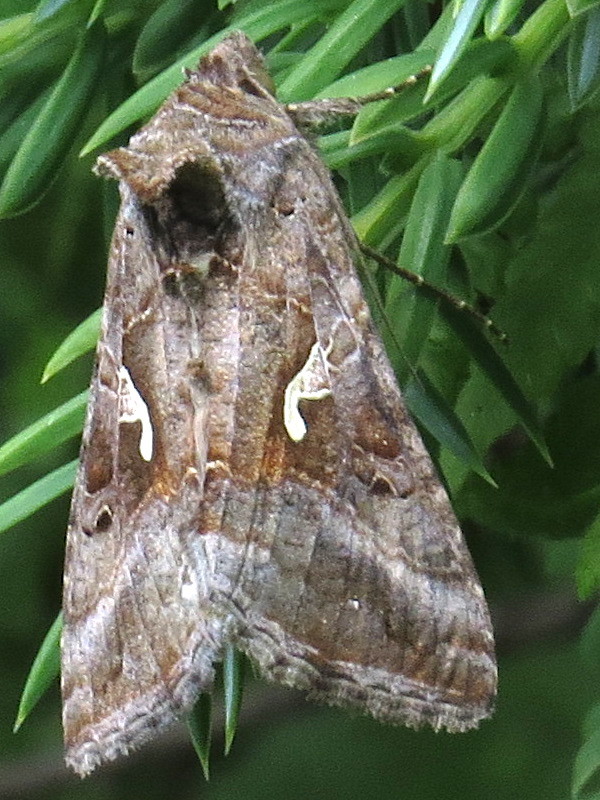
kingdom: Animalia
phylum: Arthropoda
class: Insecta
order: Lepidoptera
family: Noctuidae
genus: Autographa
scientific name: Autographa gamma
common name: Silver y
